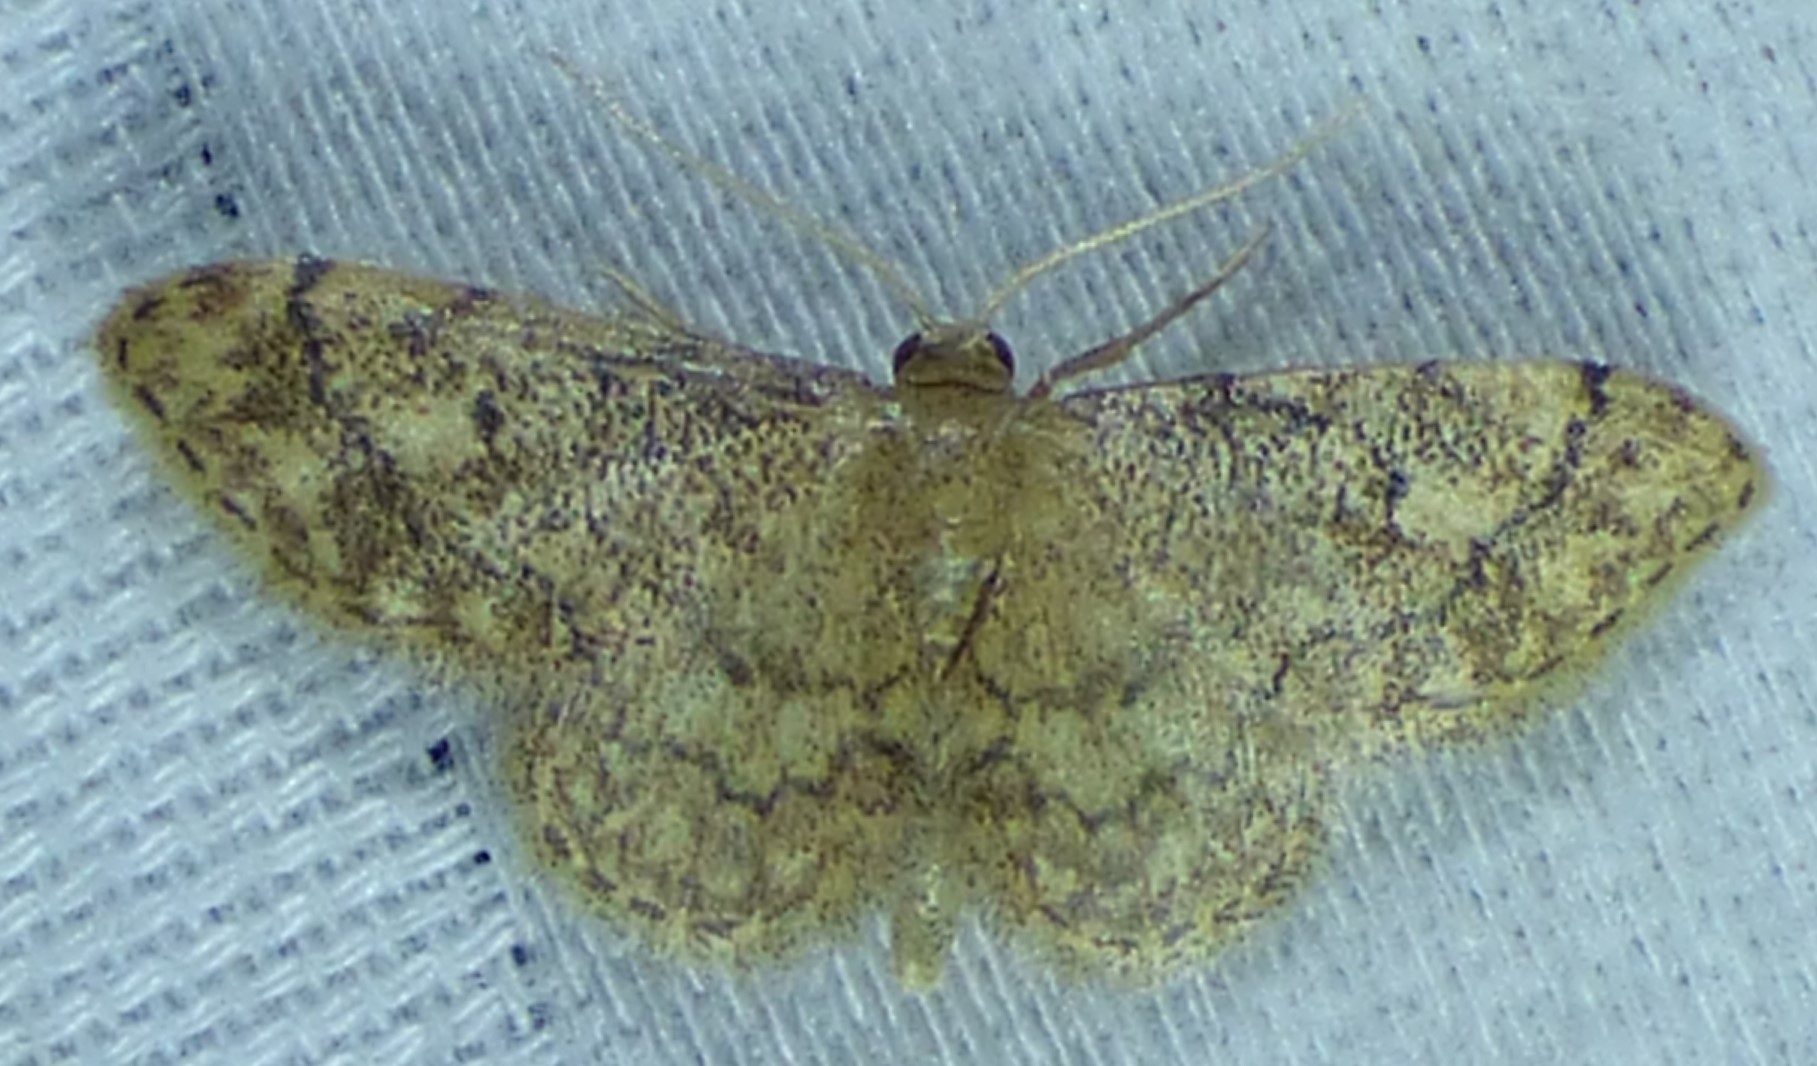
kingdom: Animalia
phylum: Arthropoda
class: Insecta
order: Lepidoptera
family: Geometridae
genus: Idaea
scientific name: Idaea celtima
